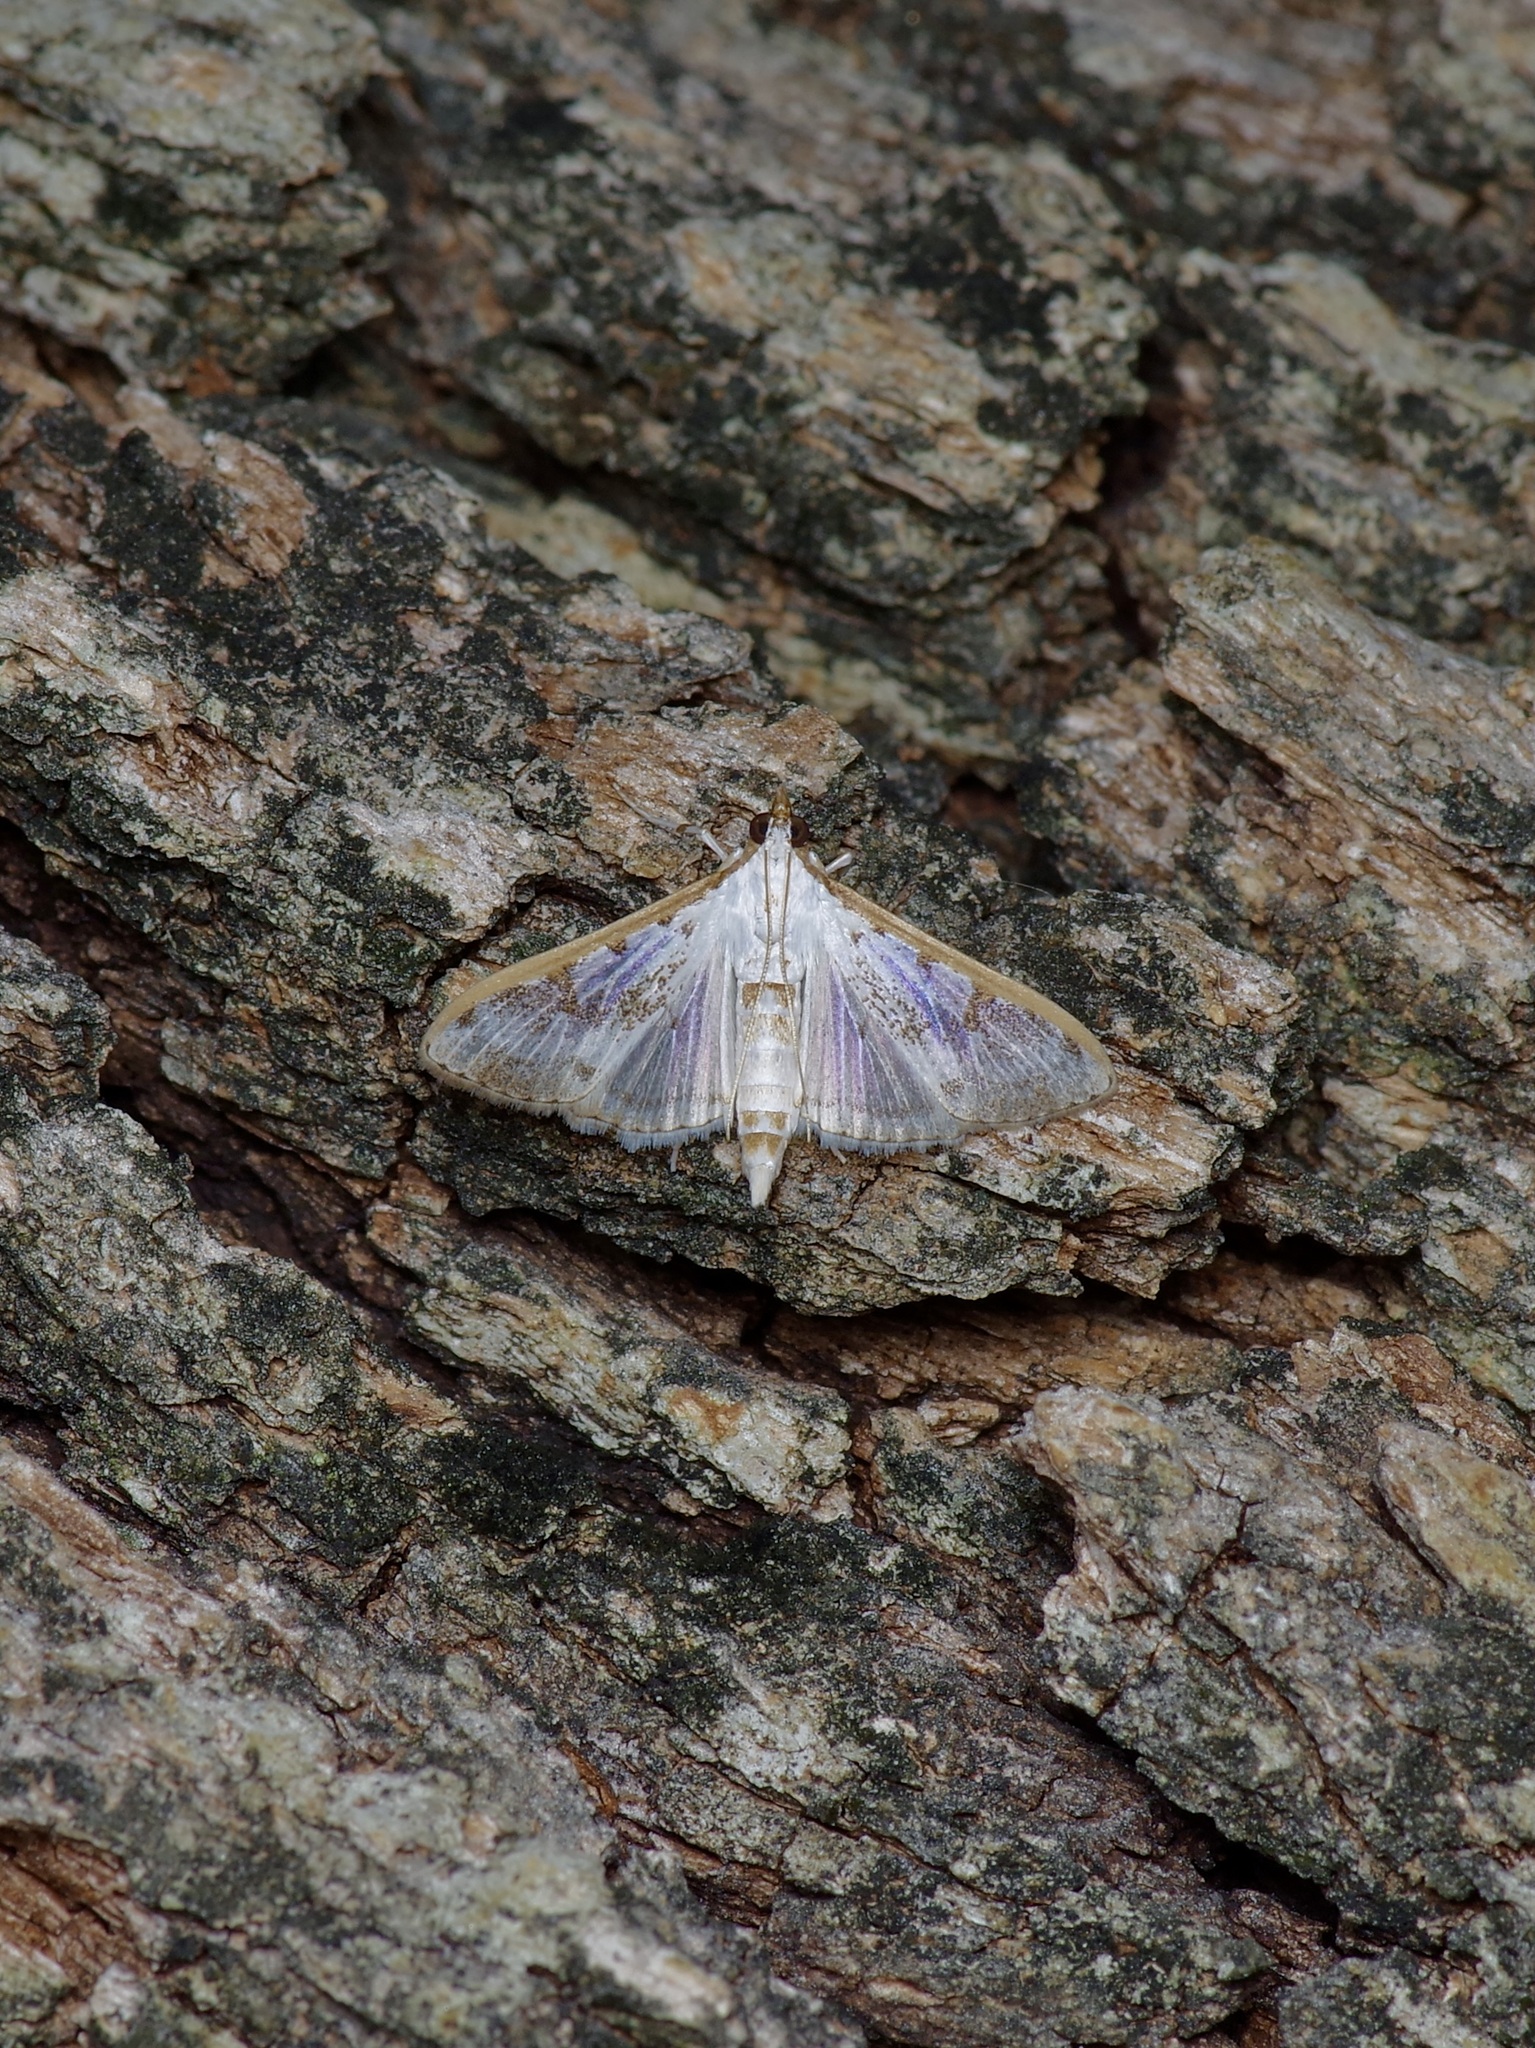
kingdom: Animalia
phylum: Arthropoda
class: Insecta
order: Lepidoptera
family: Crambidae
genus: Palpita
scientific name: Palpita gracilalis
